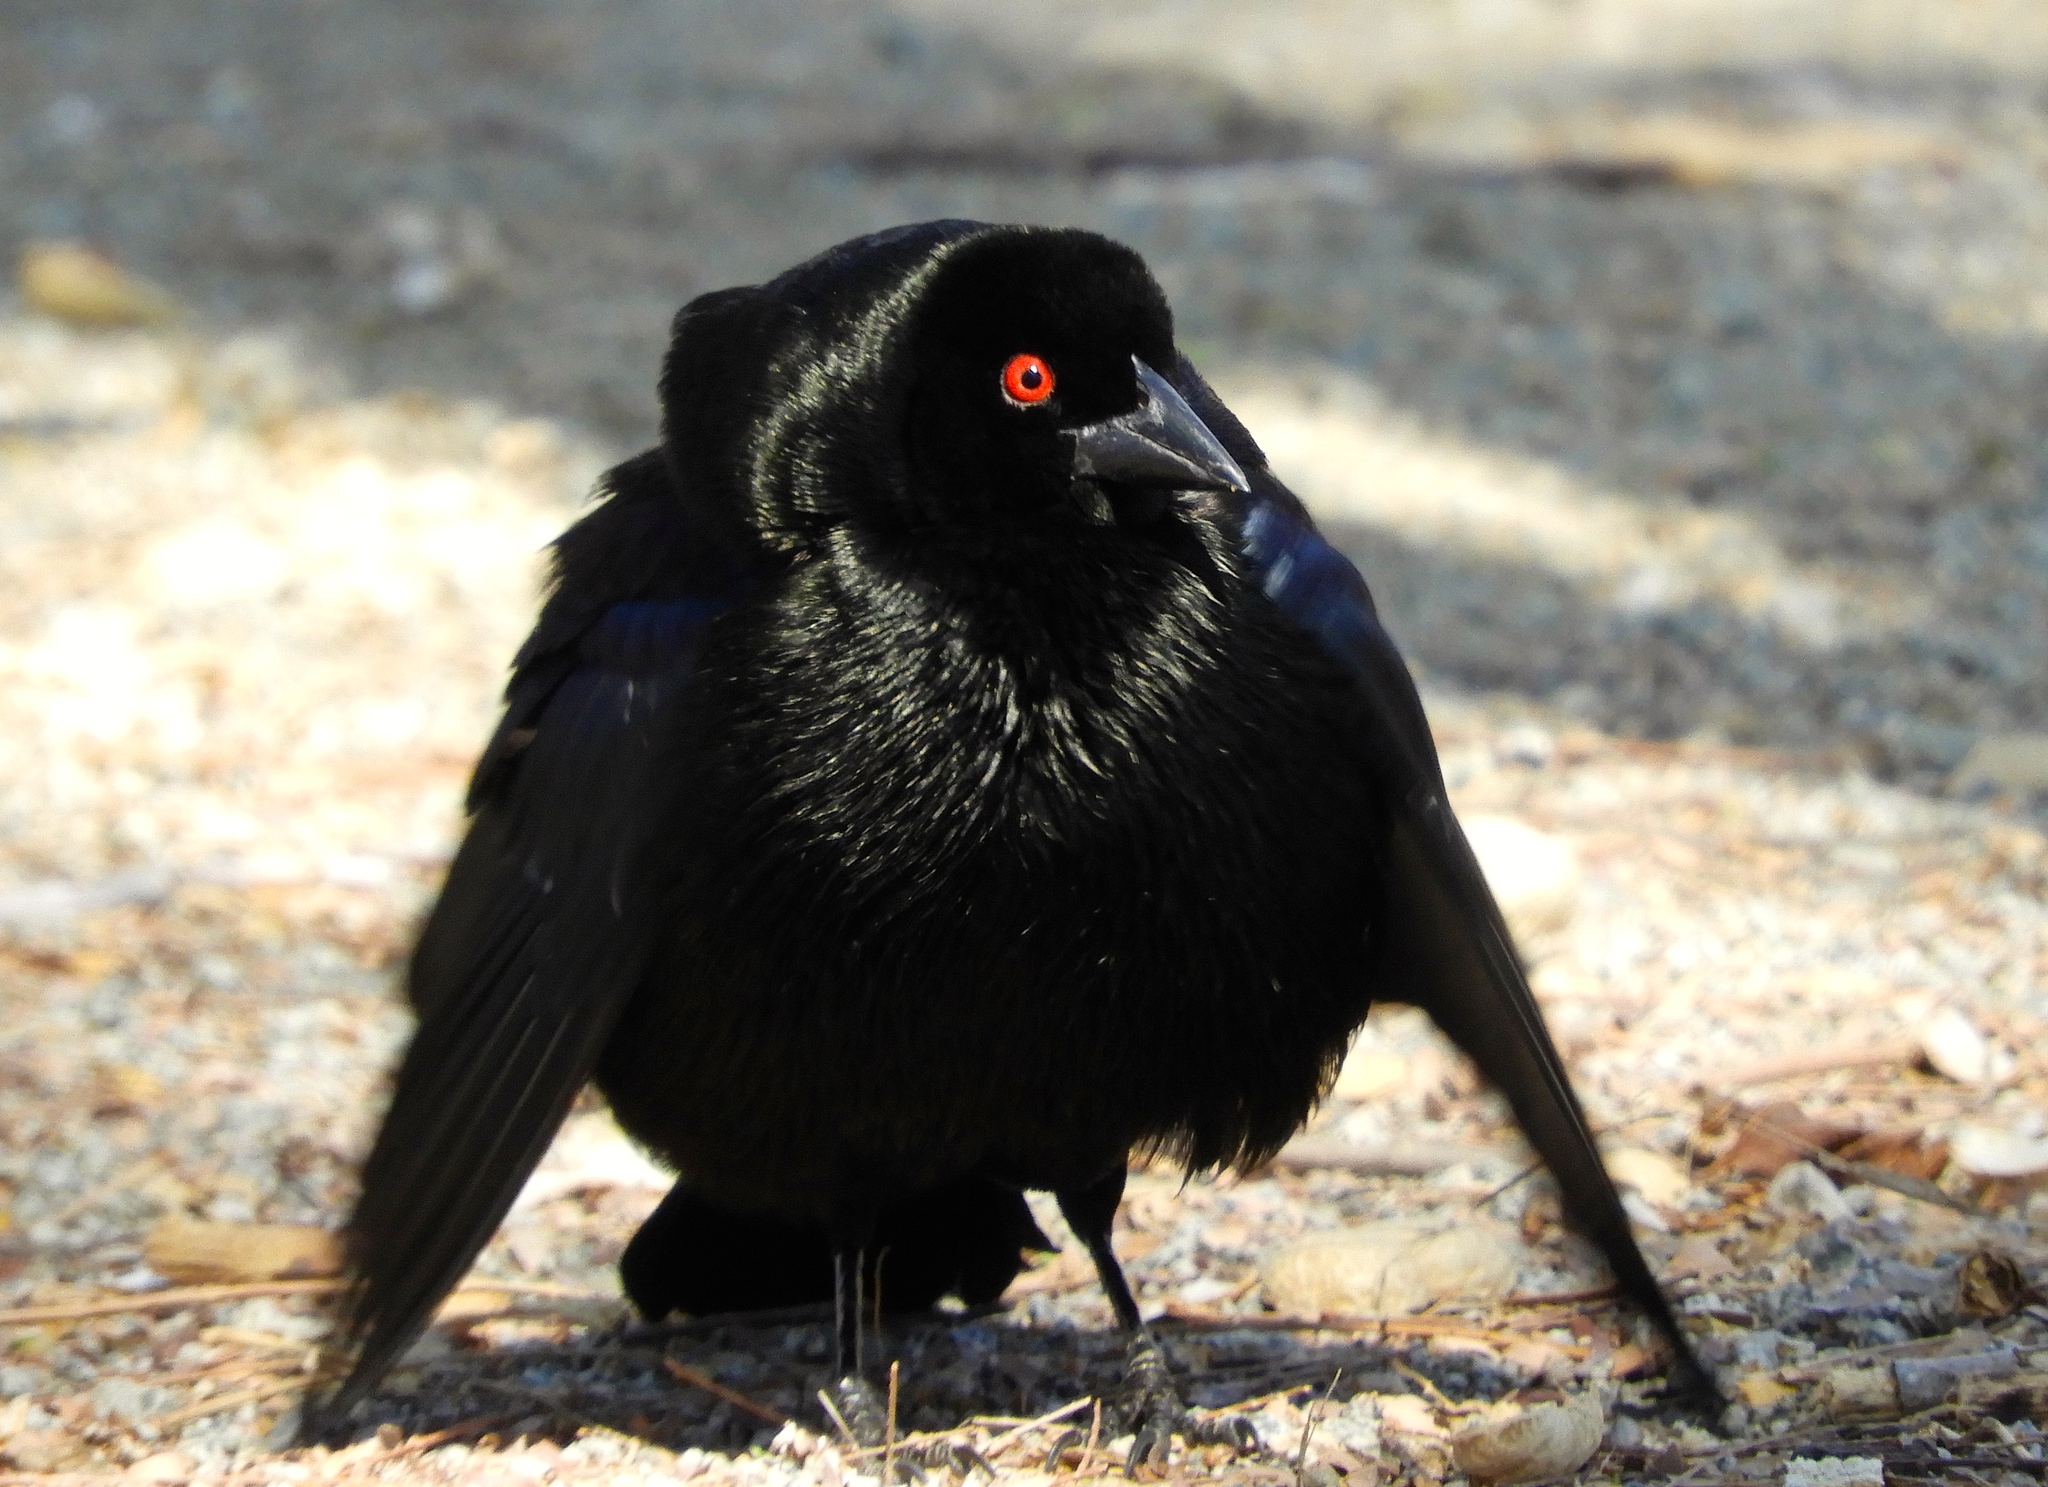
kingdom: Animalia
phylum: Chordata
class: Aves
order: Passeriformes
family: Icteridae
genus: Molothrus
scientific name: Molothrus aeneus
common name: Bronzed cowbird
